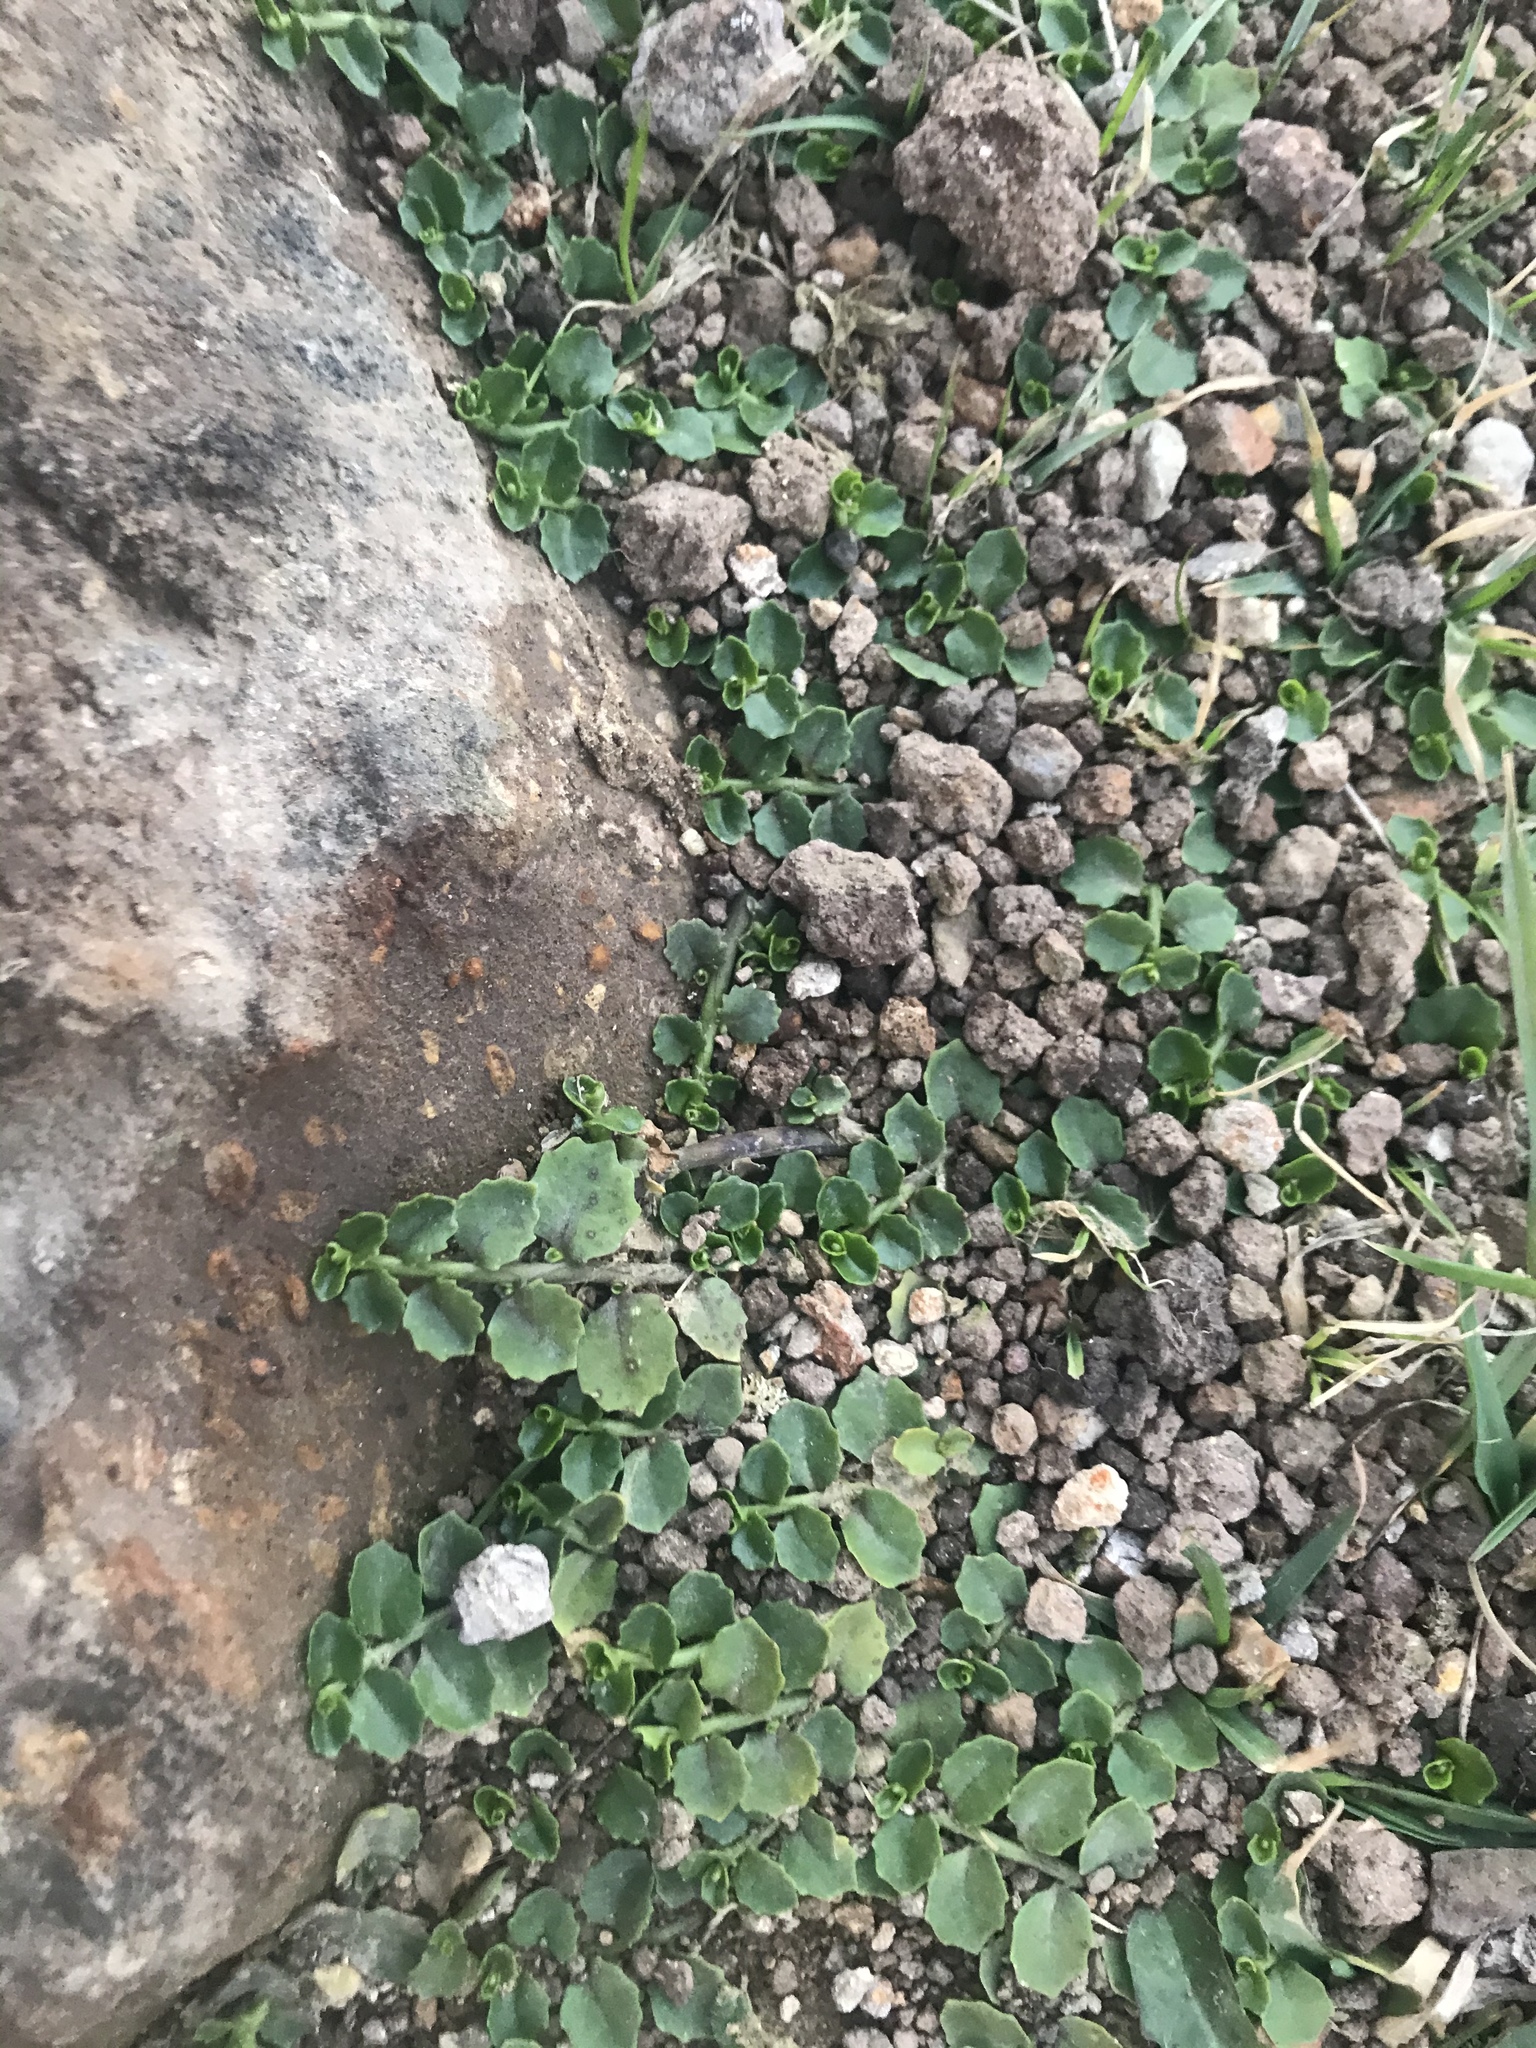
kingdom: Plantae
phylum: Tracheophyta
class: Magnoliopsida
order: Asterales
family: Campanulaceae
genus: Lobelia
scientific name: Lobelia arenaria
